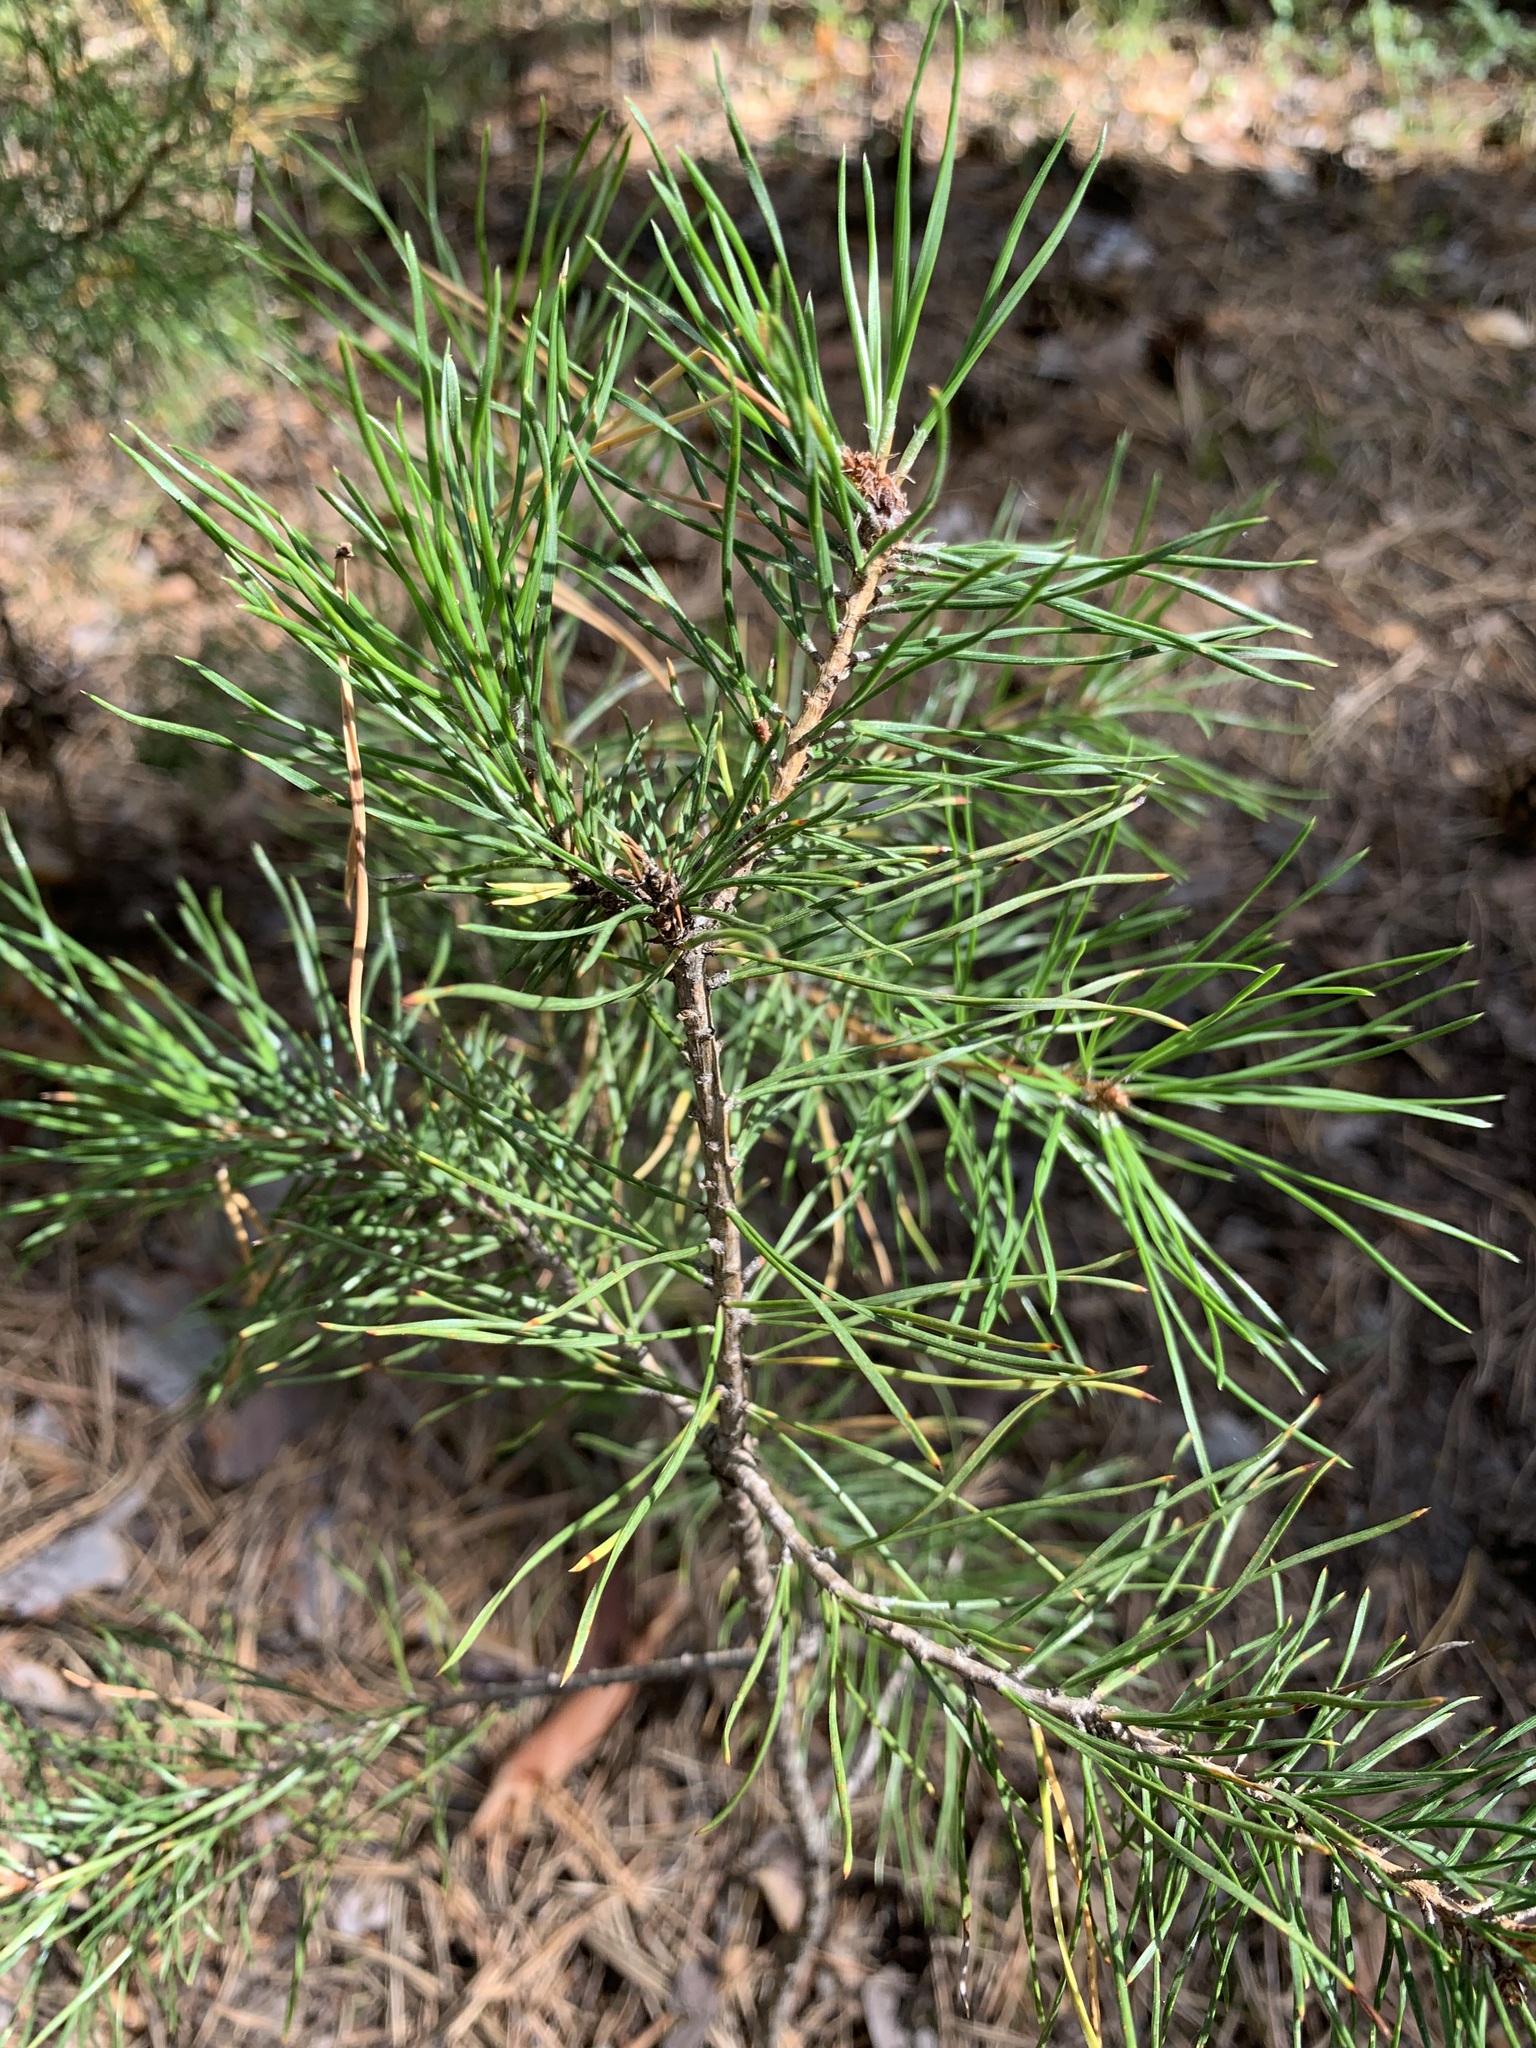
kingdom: Plantae
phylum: Tracheophyta
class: Pinopsida
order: Pinales
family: Pinaceae
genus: Pinus
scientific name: Pinus sylvestris
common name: Scots pine
